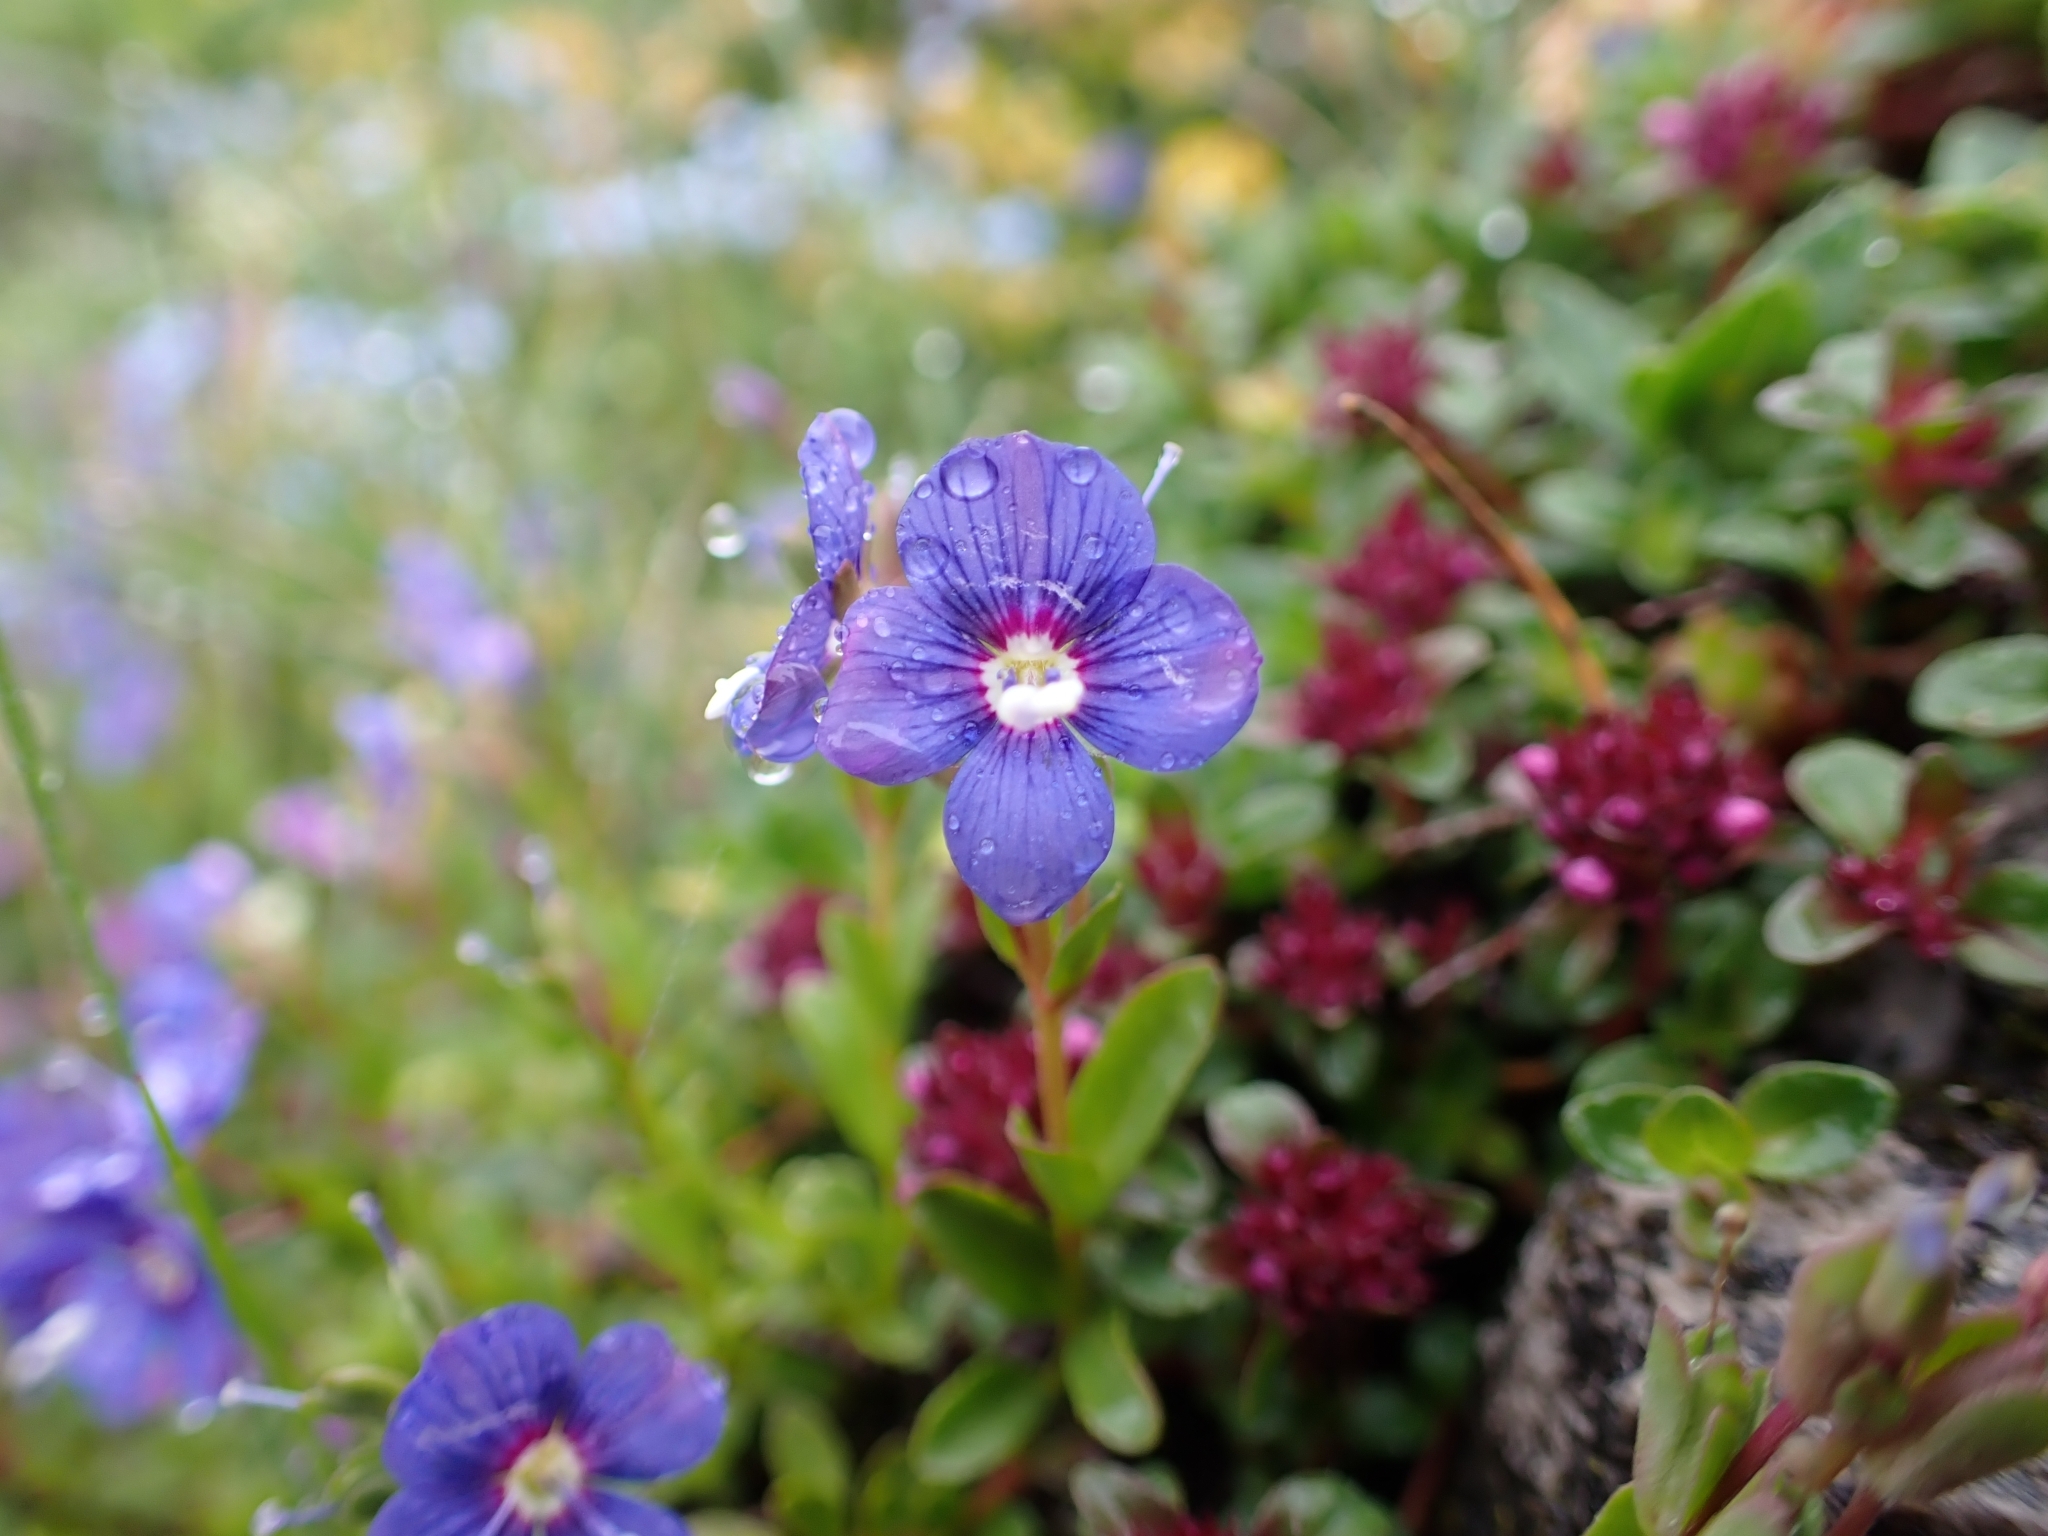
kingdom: Plantae
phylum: Tracheophyta
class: Magnoliopsida
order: Lamiales
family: Plantaginaceae
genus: Veronica
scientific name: Veronica fruticans
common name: Rock speedwell
